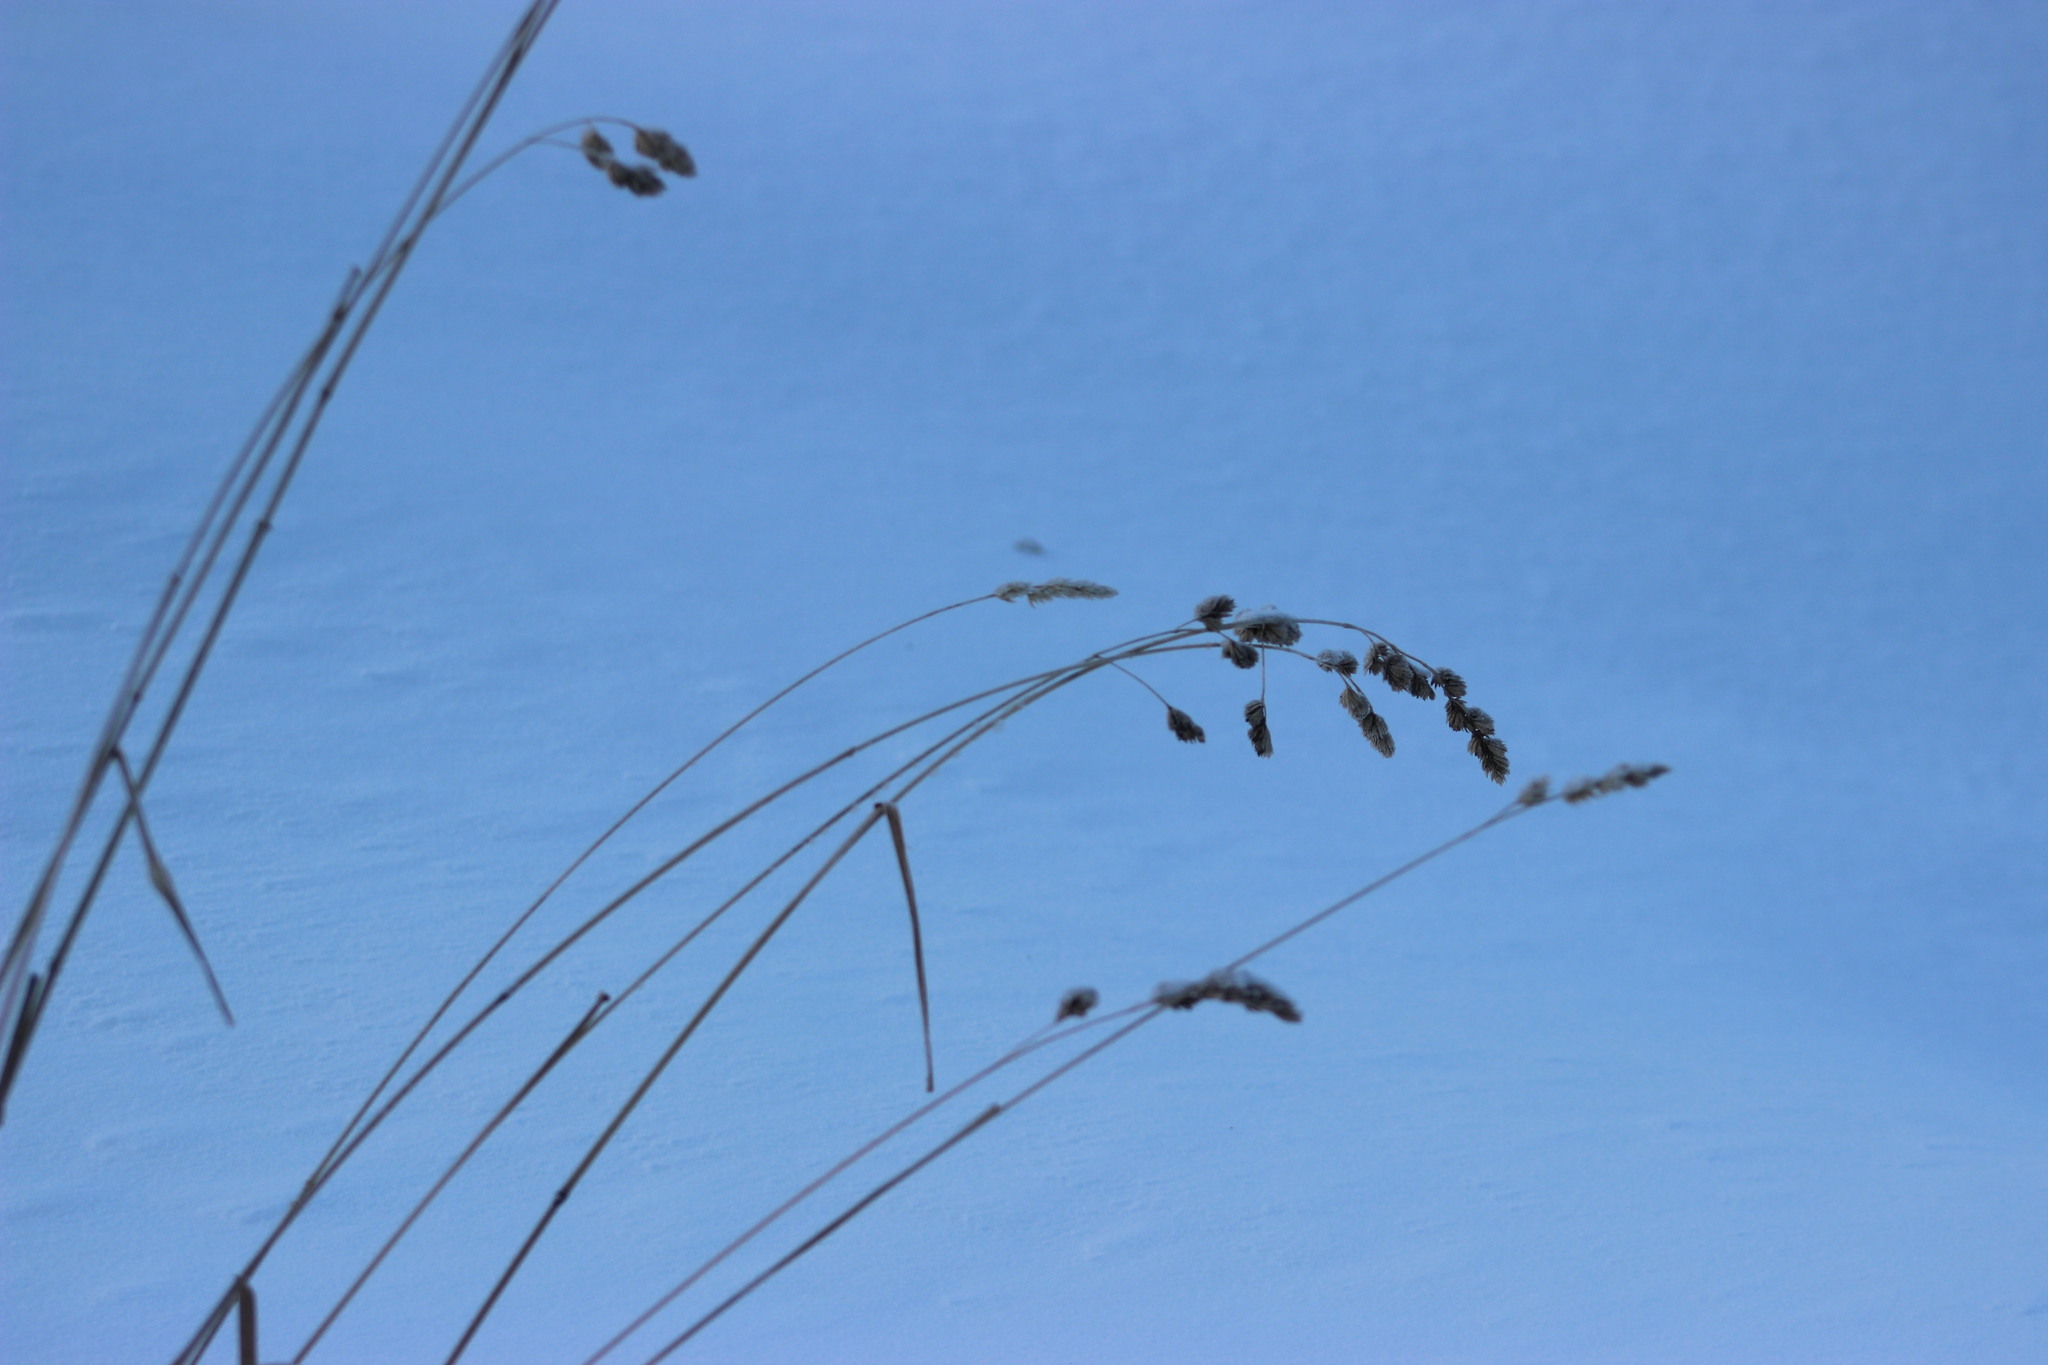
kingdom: Plantae
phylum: Tracheophyta
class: Liliopsida
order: Poales
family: Poaceae
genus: Dactylis
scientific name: Dactylis glomerata
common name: Orchardgrass
